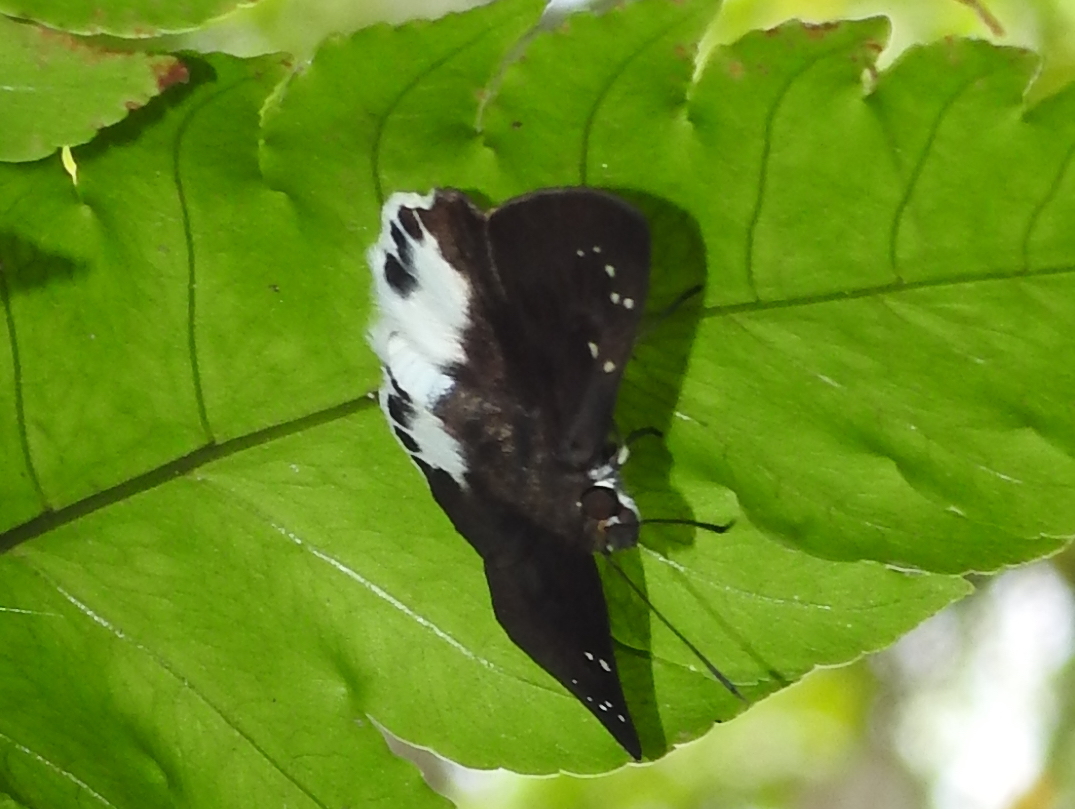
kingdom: Animalia
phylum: Arthropoda
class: Insecta
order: Lepidoptera
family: Hesperiidae
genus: Tagiades
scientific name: Tagiades litigiosa
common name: Water snow flat
